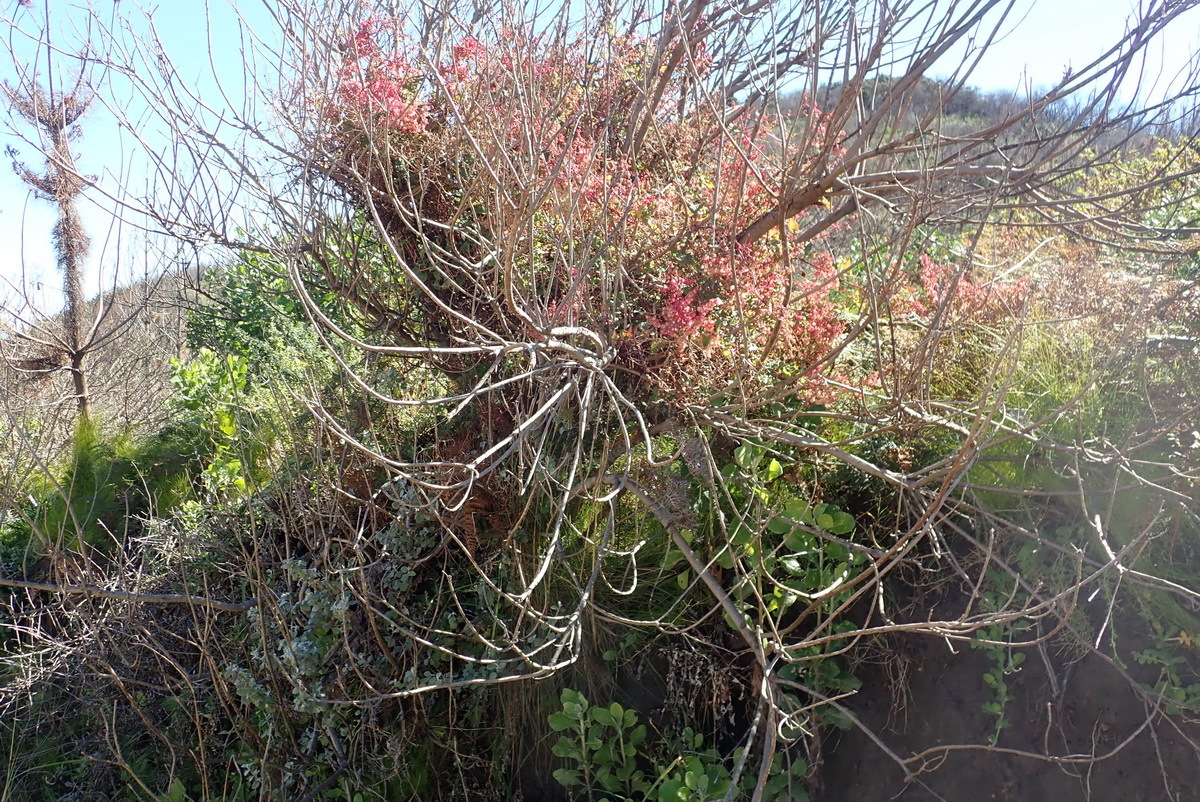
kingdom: Plantae
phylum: Tracheophyta
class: Magnoliopsida
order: Caryophyllales
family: Polygonaceae
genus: Rumex
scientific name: Rumex sagittatus
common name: Climbing dock
